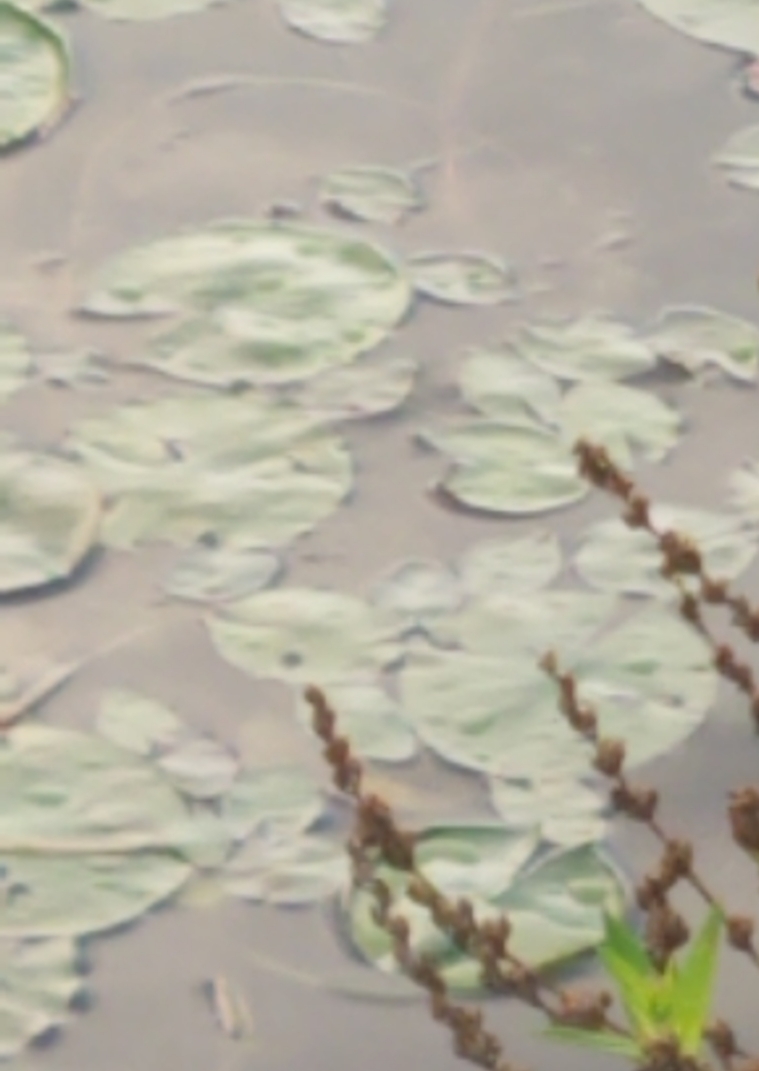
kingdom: Plantae
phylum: Tracheophyta
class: Magnoliopsida
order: Nymphaeales
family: Cabombaceae
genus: Brasenia
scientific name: Brasenia schreberi
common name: Water-shield
